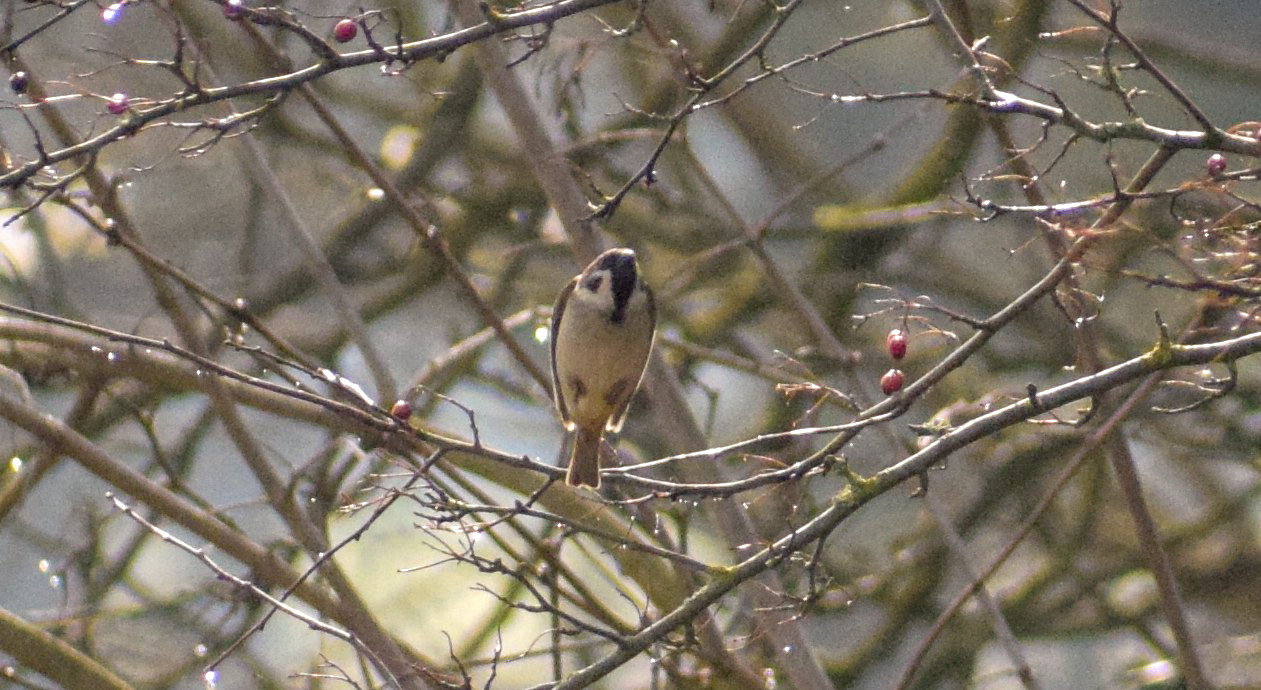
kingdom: Animalia
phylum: Chordata
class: Aves
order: Passeriformes
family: Passeridae
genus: Passer
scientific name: Passer montanus
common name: Eurasian tree sparrow
